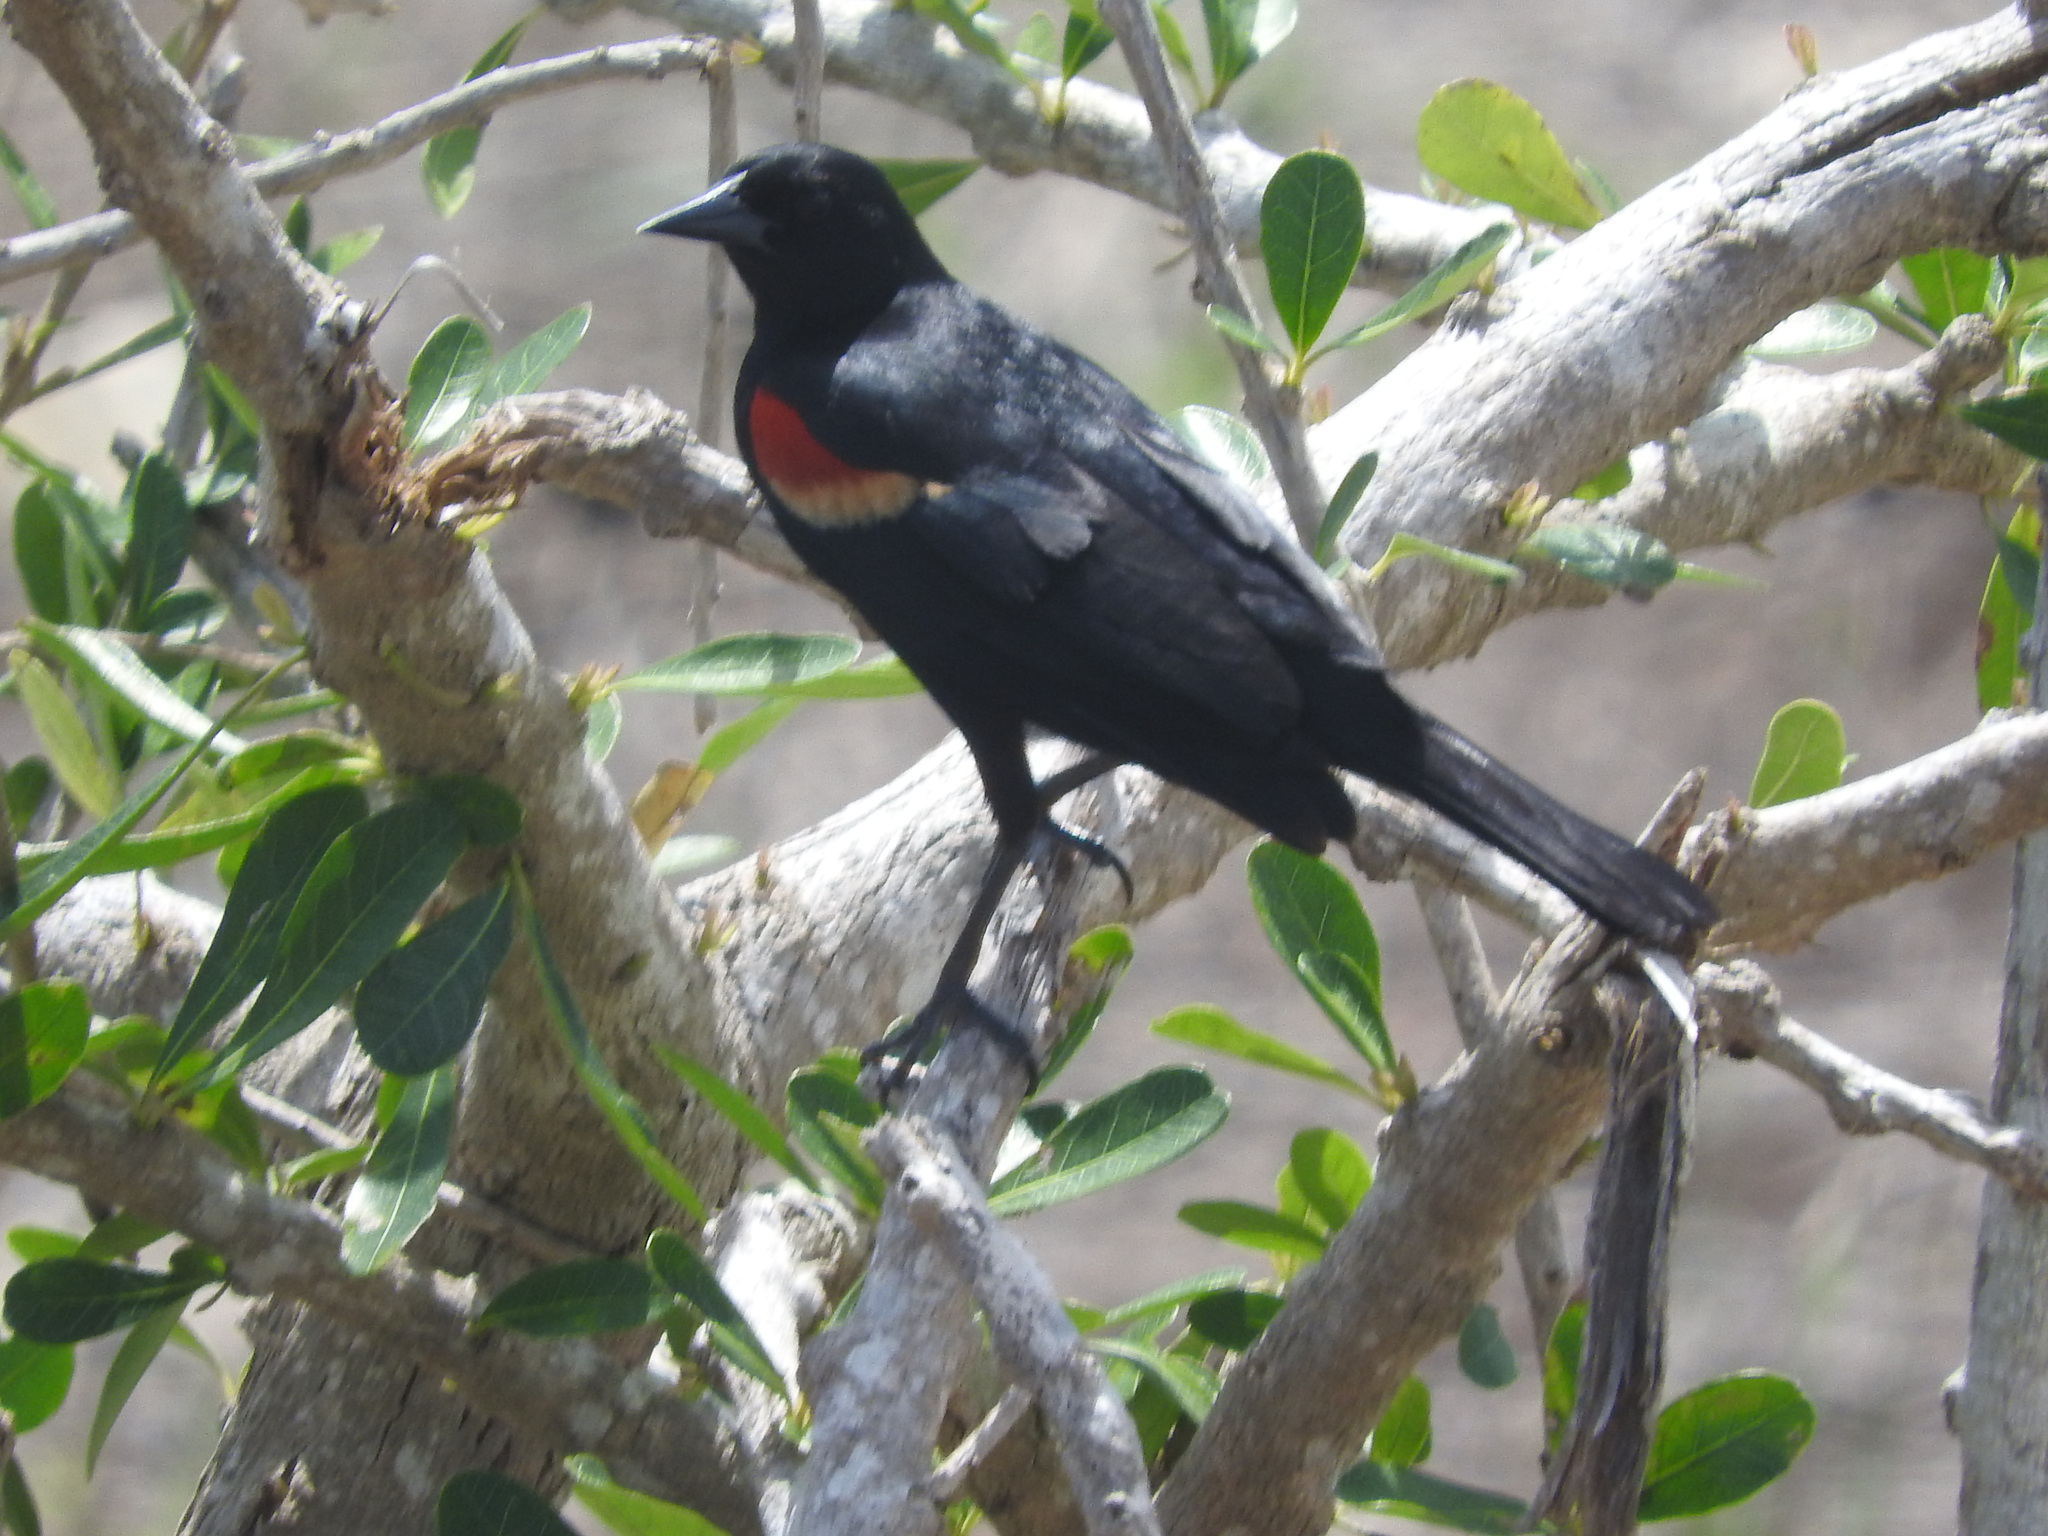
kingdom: Animalia
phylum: Chordata
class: Aves
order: Passeriformes
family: Icteridae
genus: Agelaius
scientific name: Agelaius phoeniceus
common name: Red-winged blackbird
